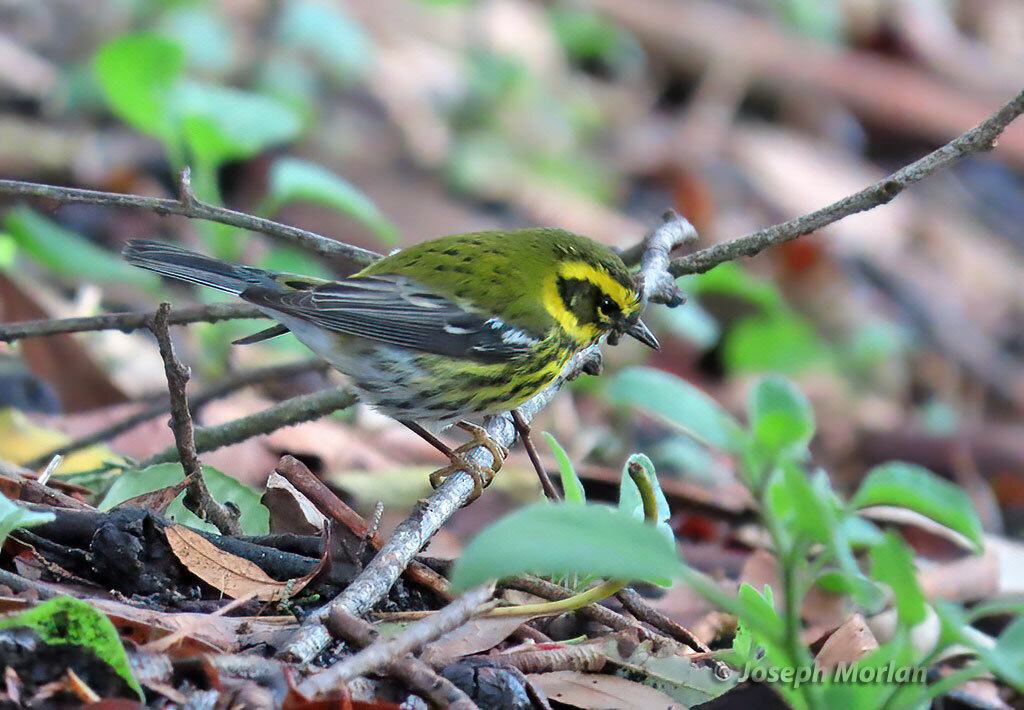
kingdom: Animalia
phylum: Chordata
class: Aves
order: Passeriformes
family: Parulidae
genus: Setophaga
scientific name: Setophaga townsendi
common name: Townsend's warbler
